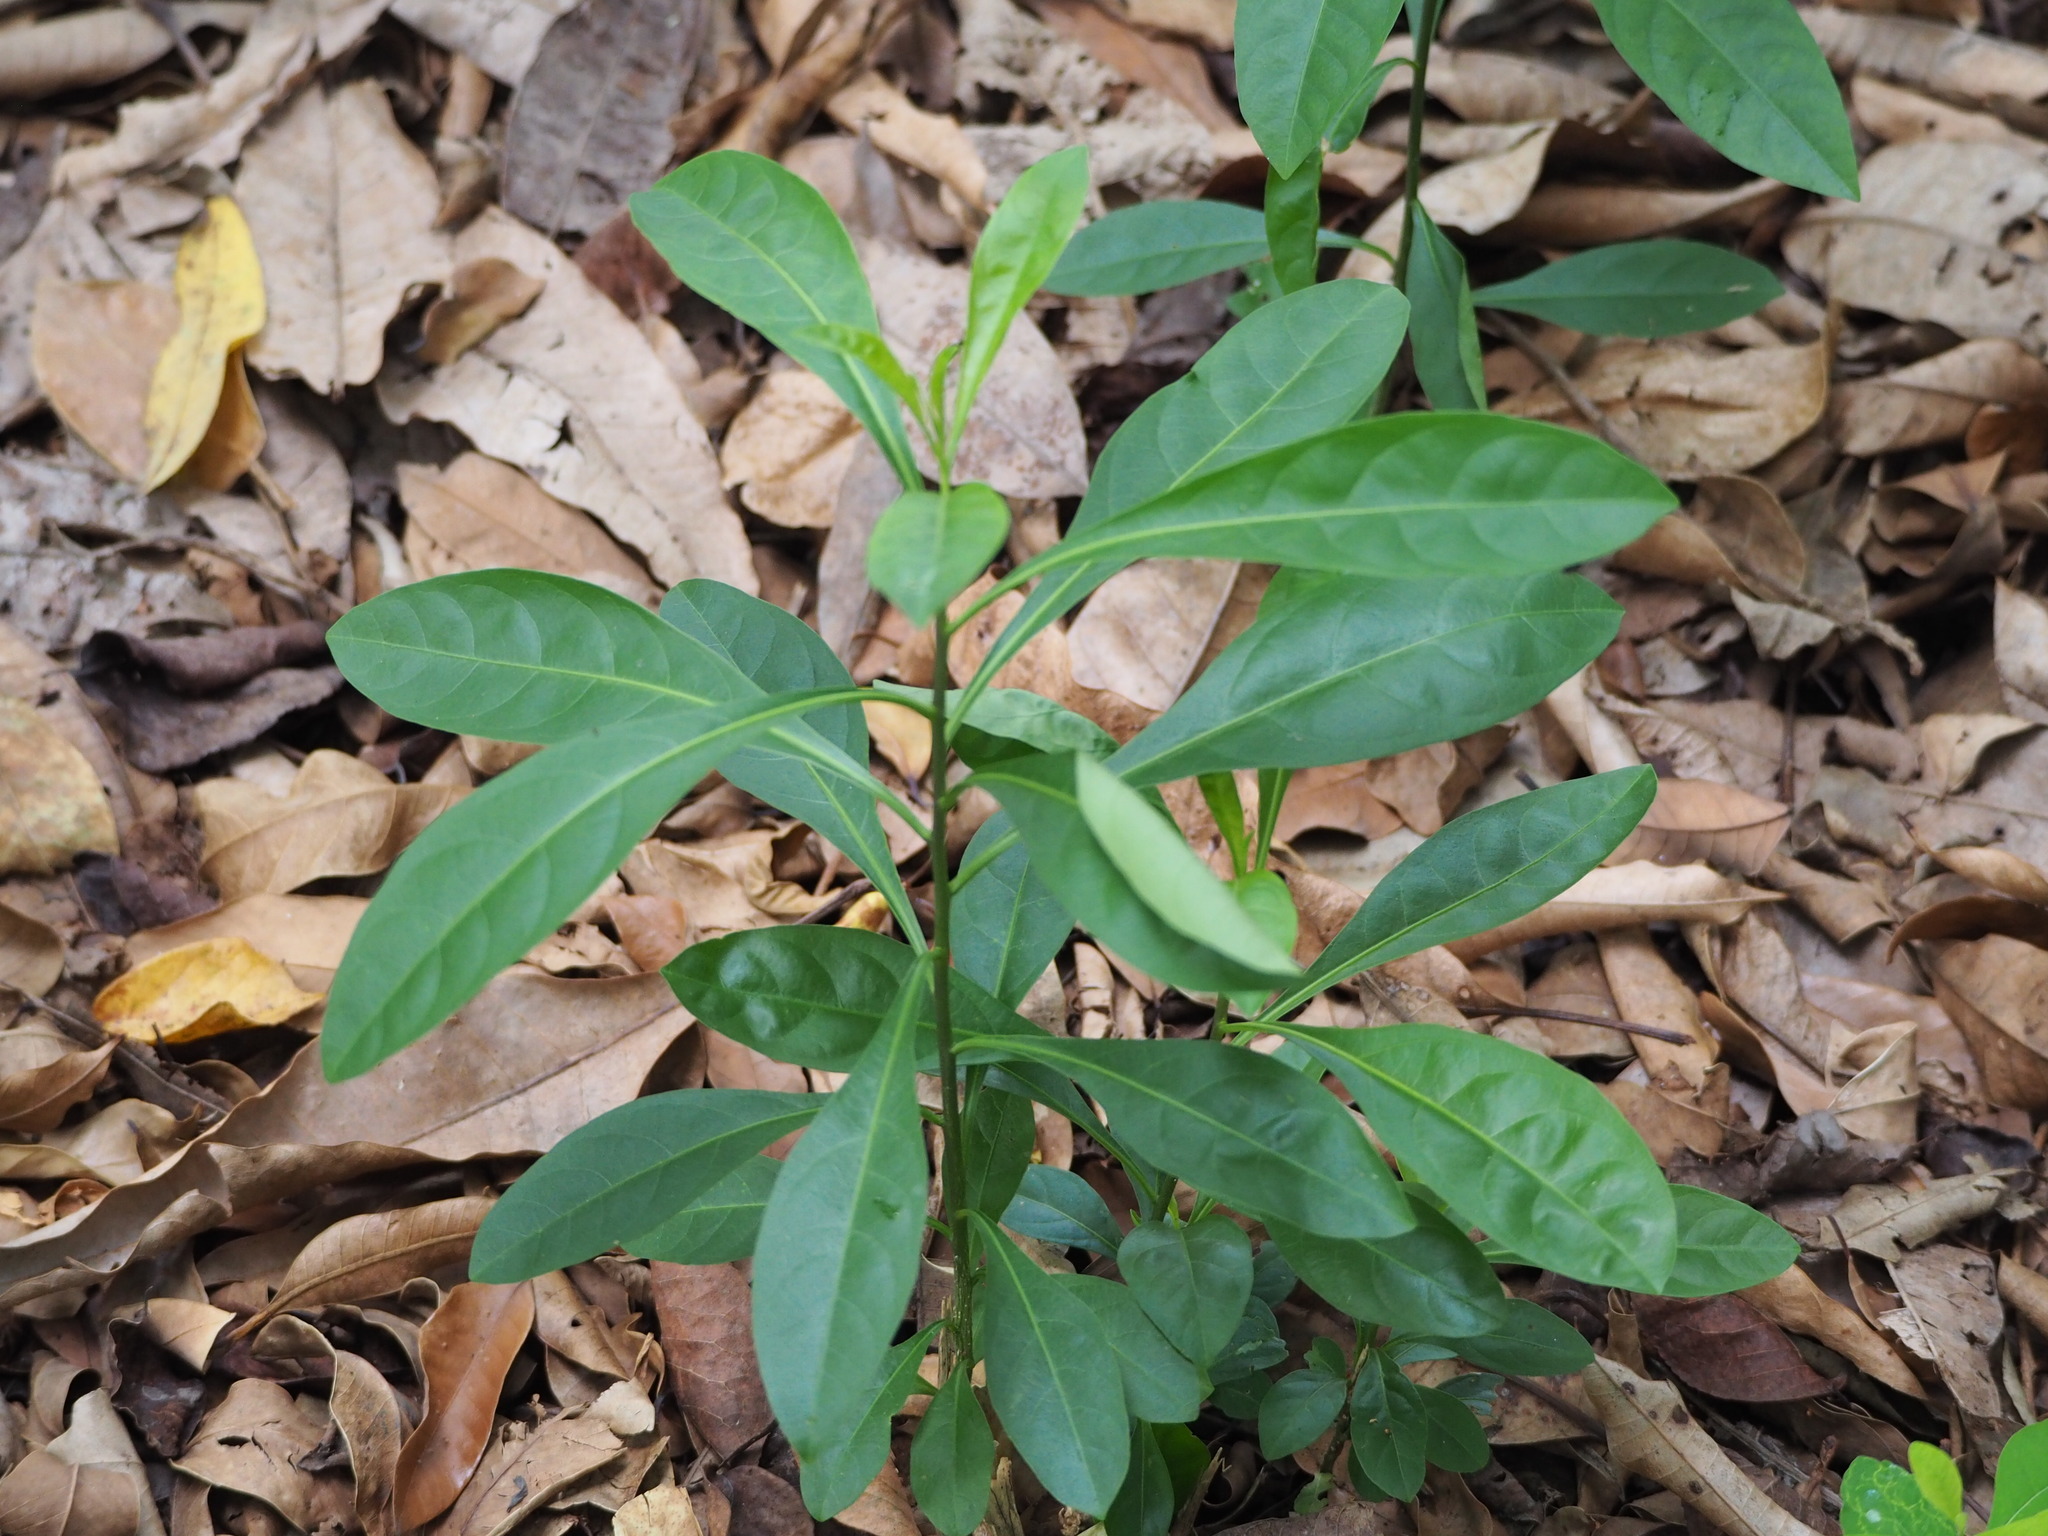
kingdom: Plantae
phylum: Tracheophyta
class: Magnoliopsida
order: Solanales
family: Solanaceae
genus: Solanum
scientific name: Solanum diphyllum
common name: Twoleaf nightshade
